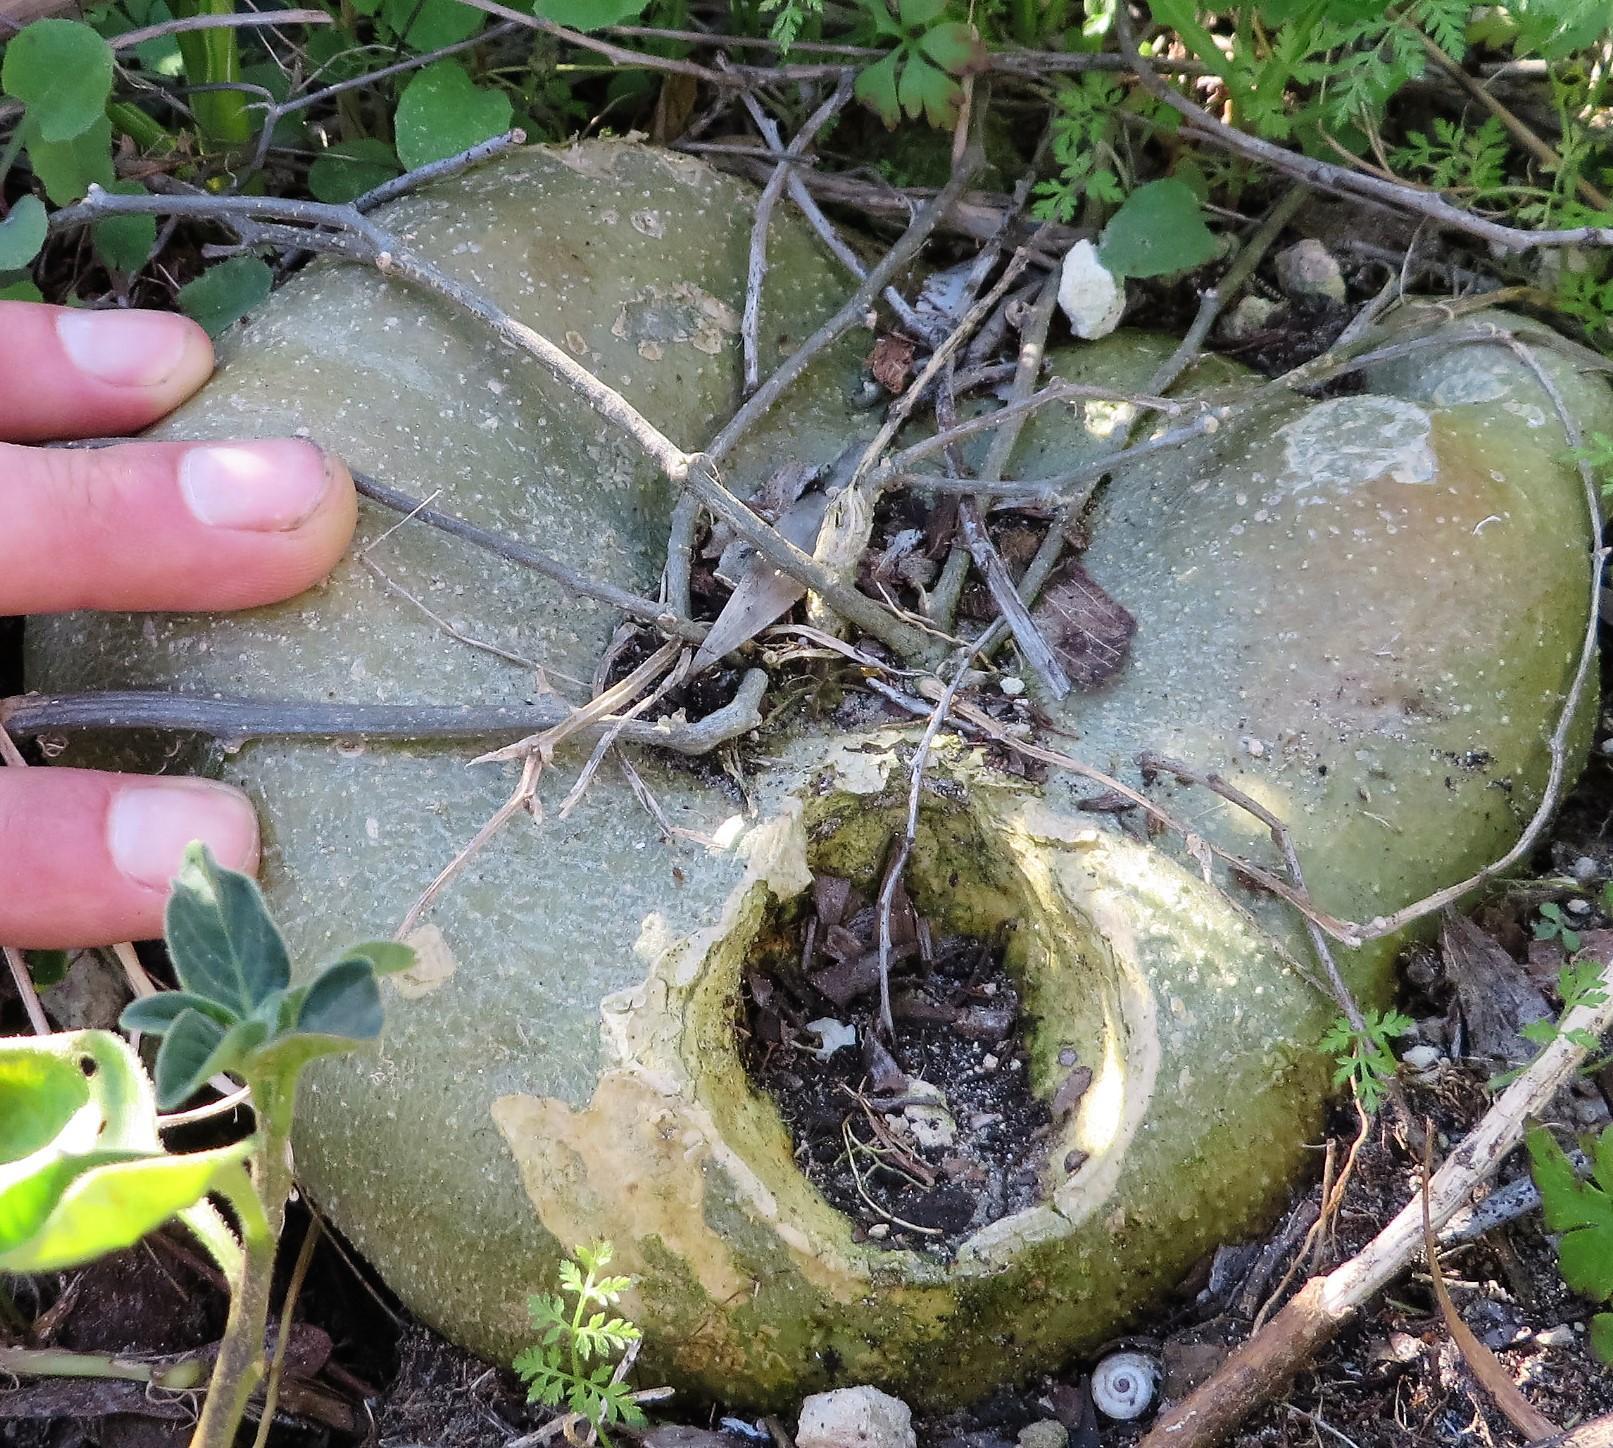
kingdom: Plantae
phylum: Tracheophyta
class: Magnoliopsida
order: Cucurbitales
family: Cucurbitaceae
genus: Kedrostis
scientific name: Kedrostis nana
